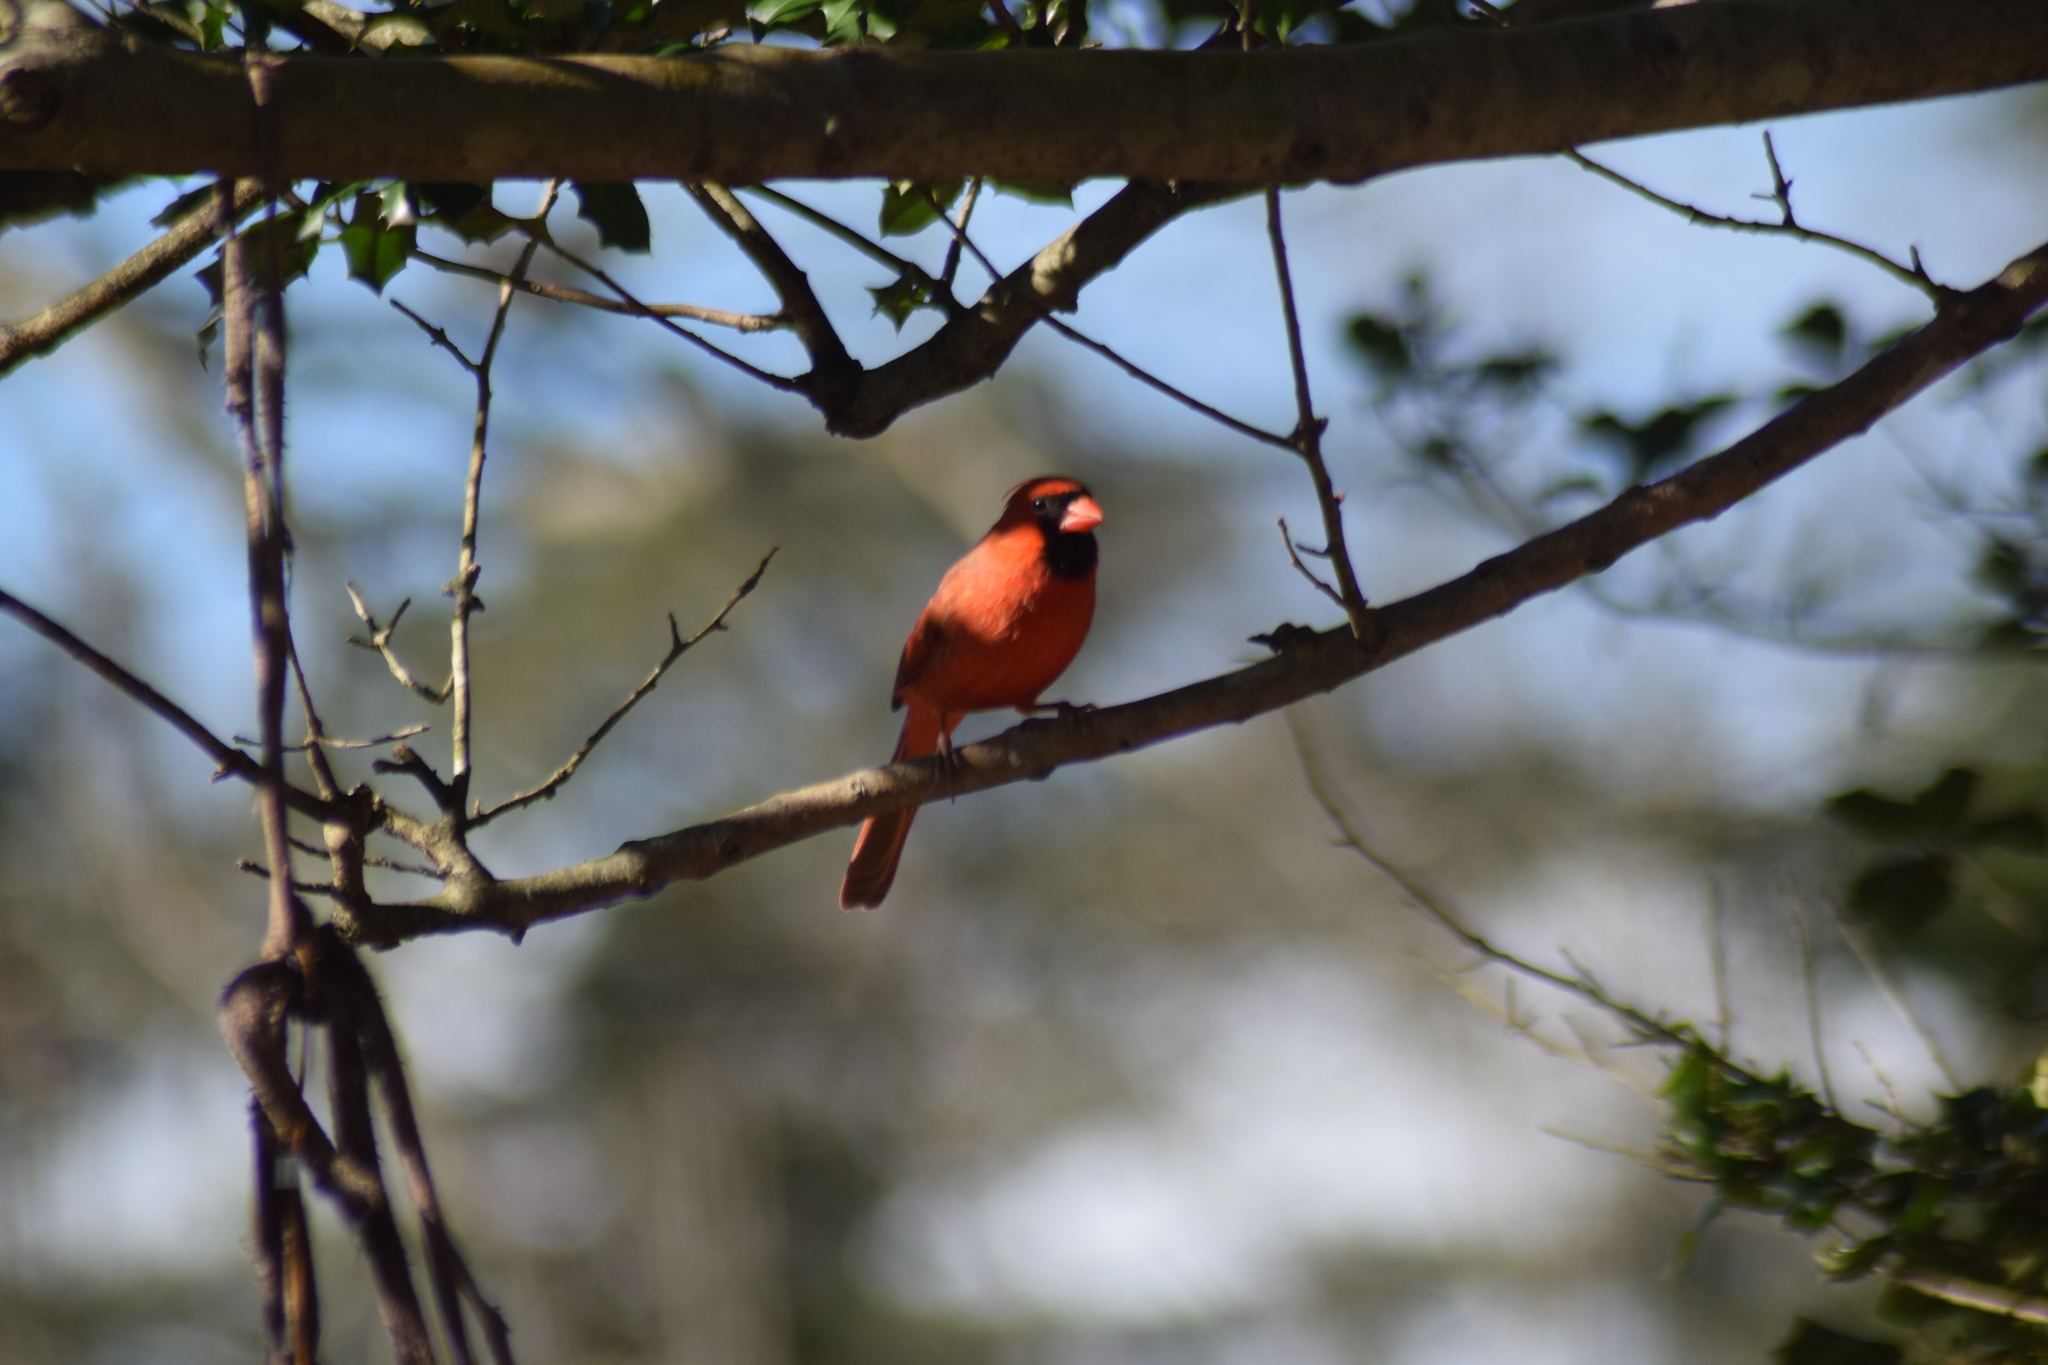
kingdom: Animalia
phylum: Chordata
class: Aves
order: Passeriformes
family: Cardinalidae
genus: Cardinalis
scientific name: Cardinalis cardinalis
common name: Northern cardinal
